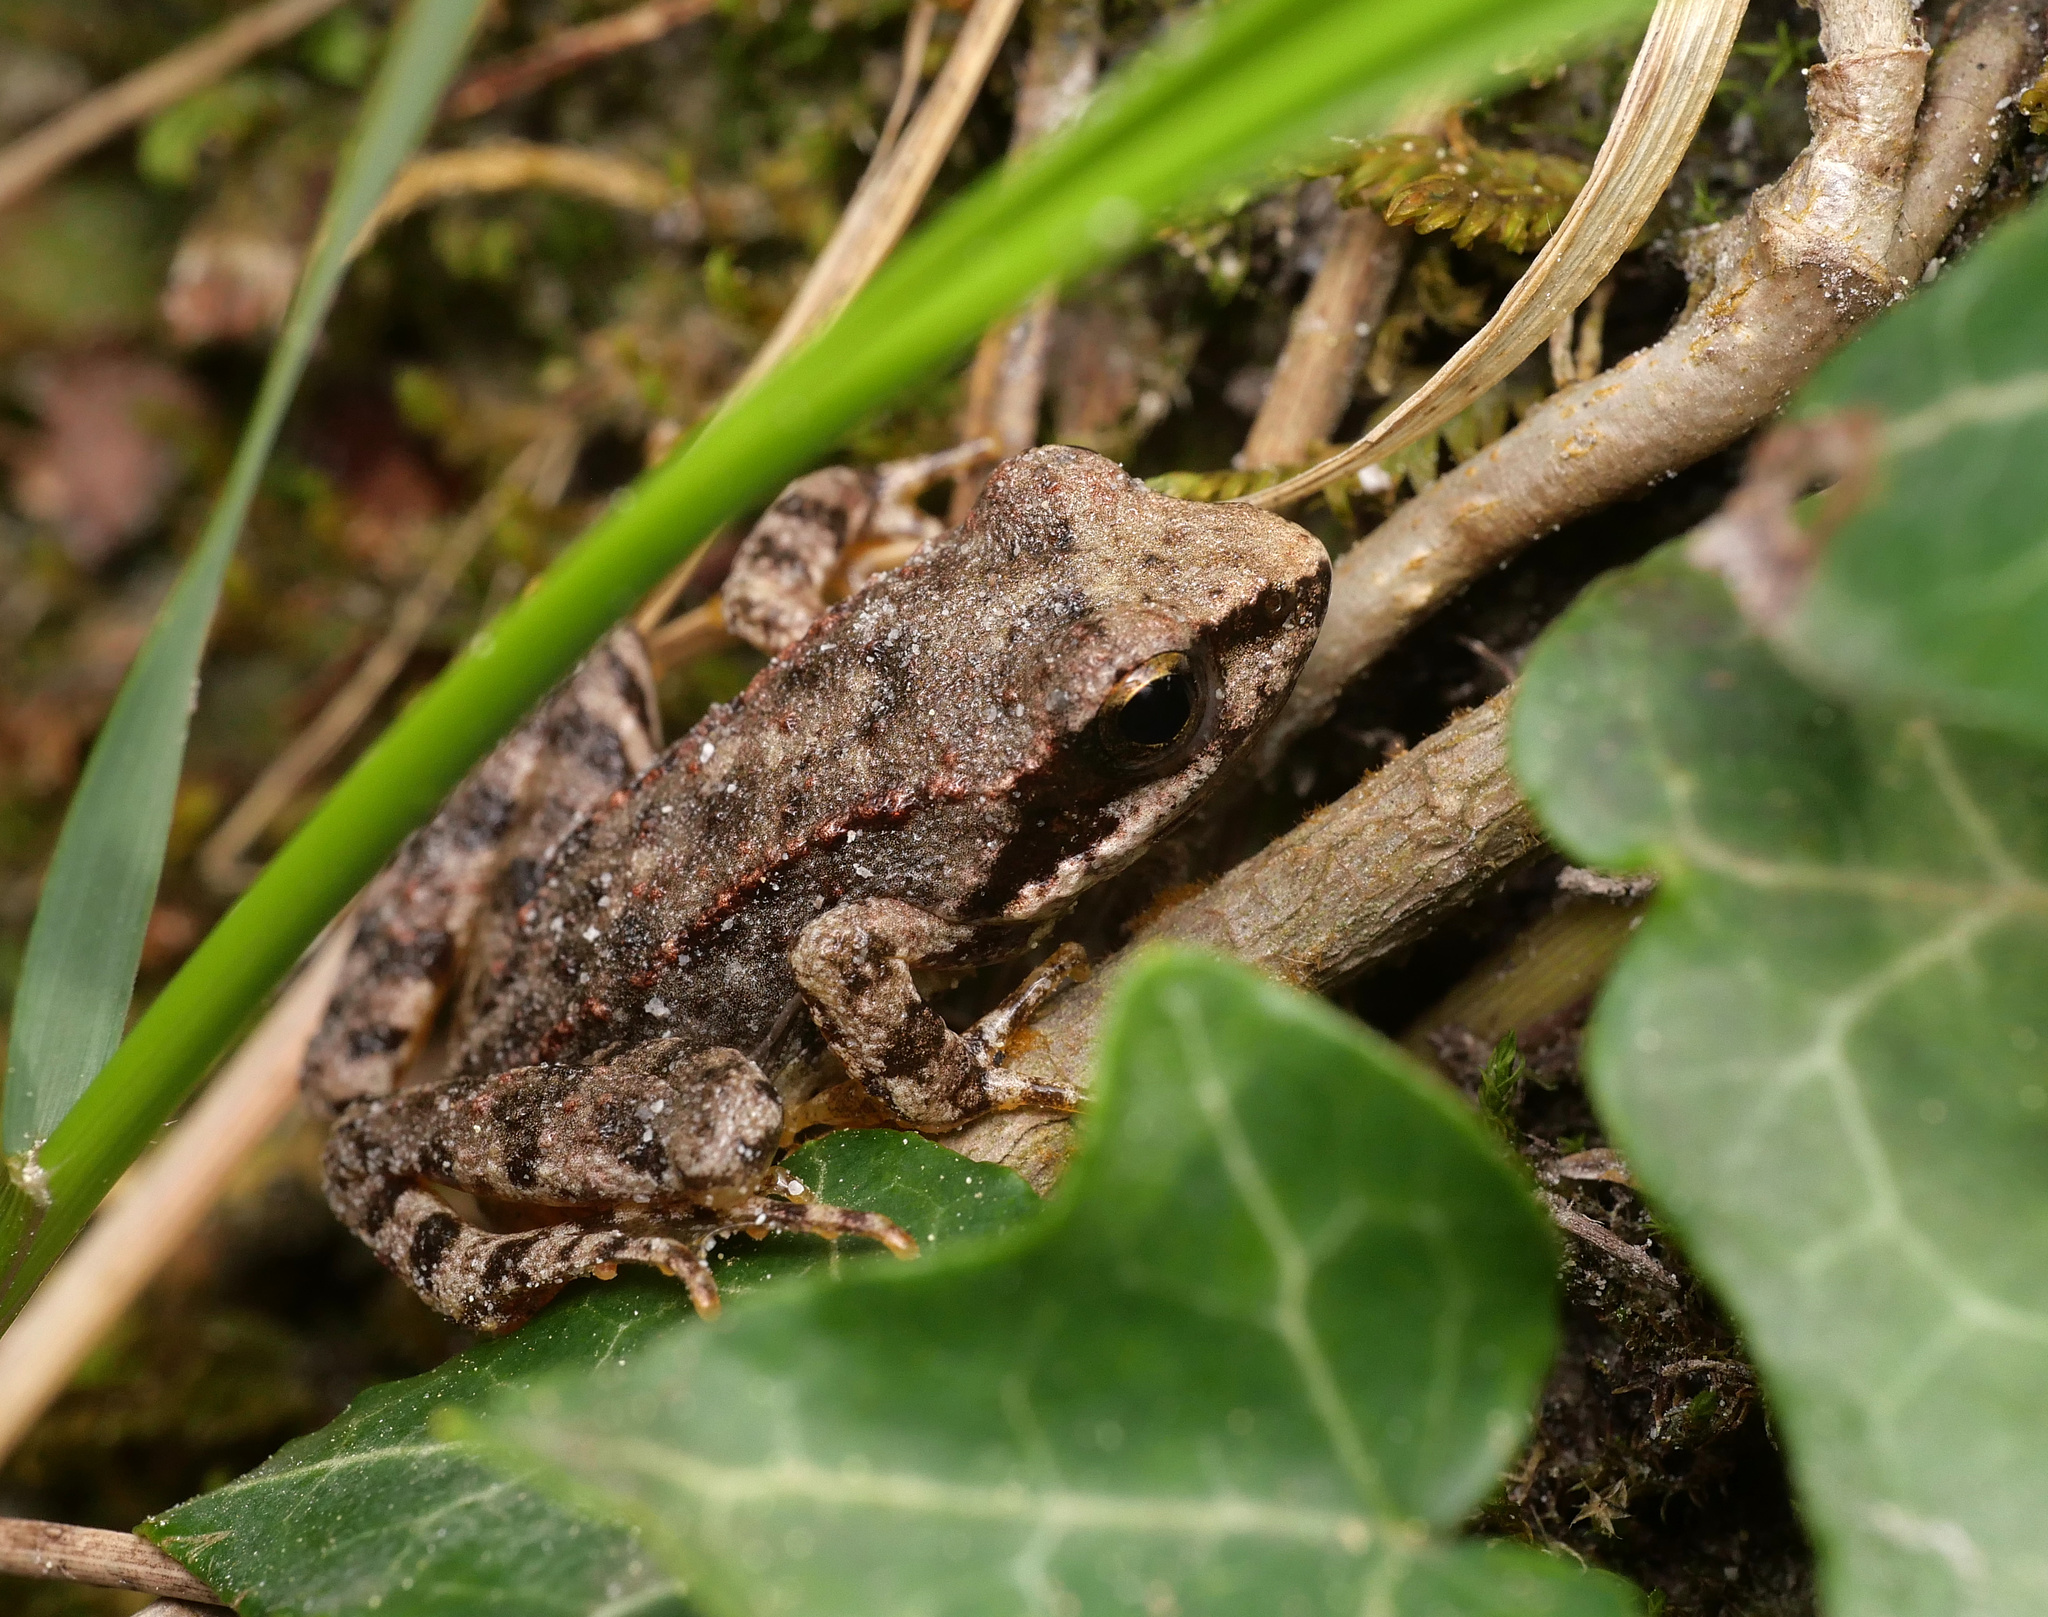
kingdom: Animalia
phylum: Chordata
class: Amphibia
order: Anura
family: Ranidae
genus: Rana
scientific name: Rana graeca
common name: Greek stream frog
